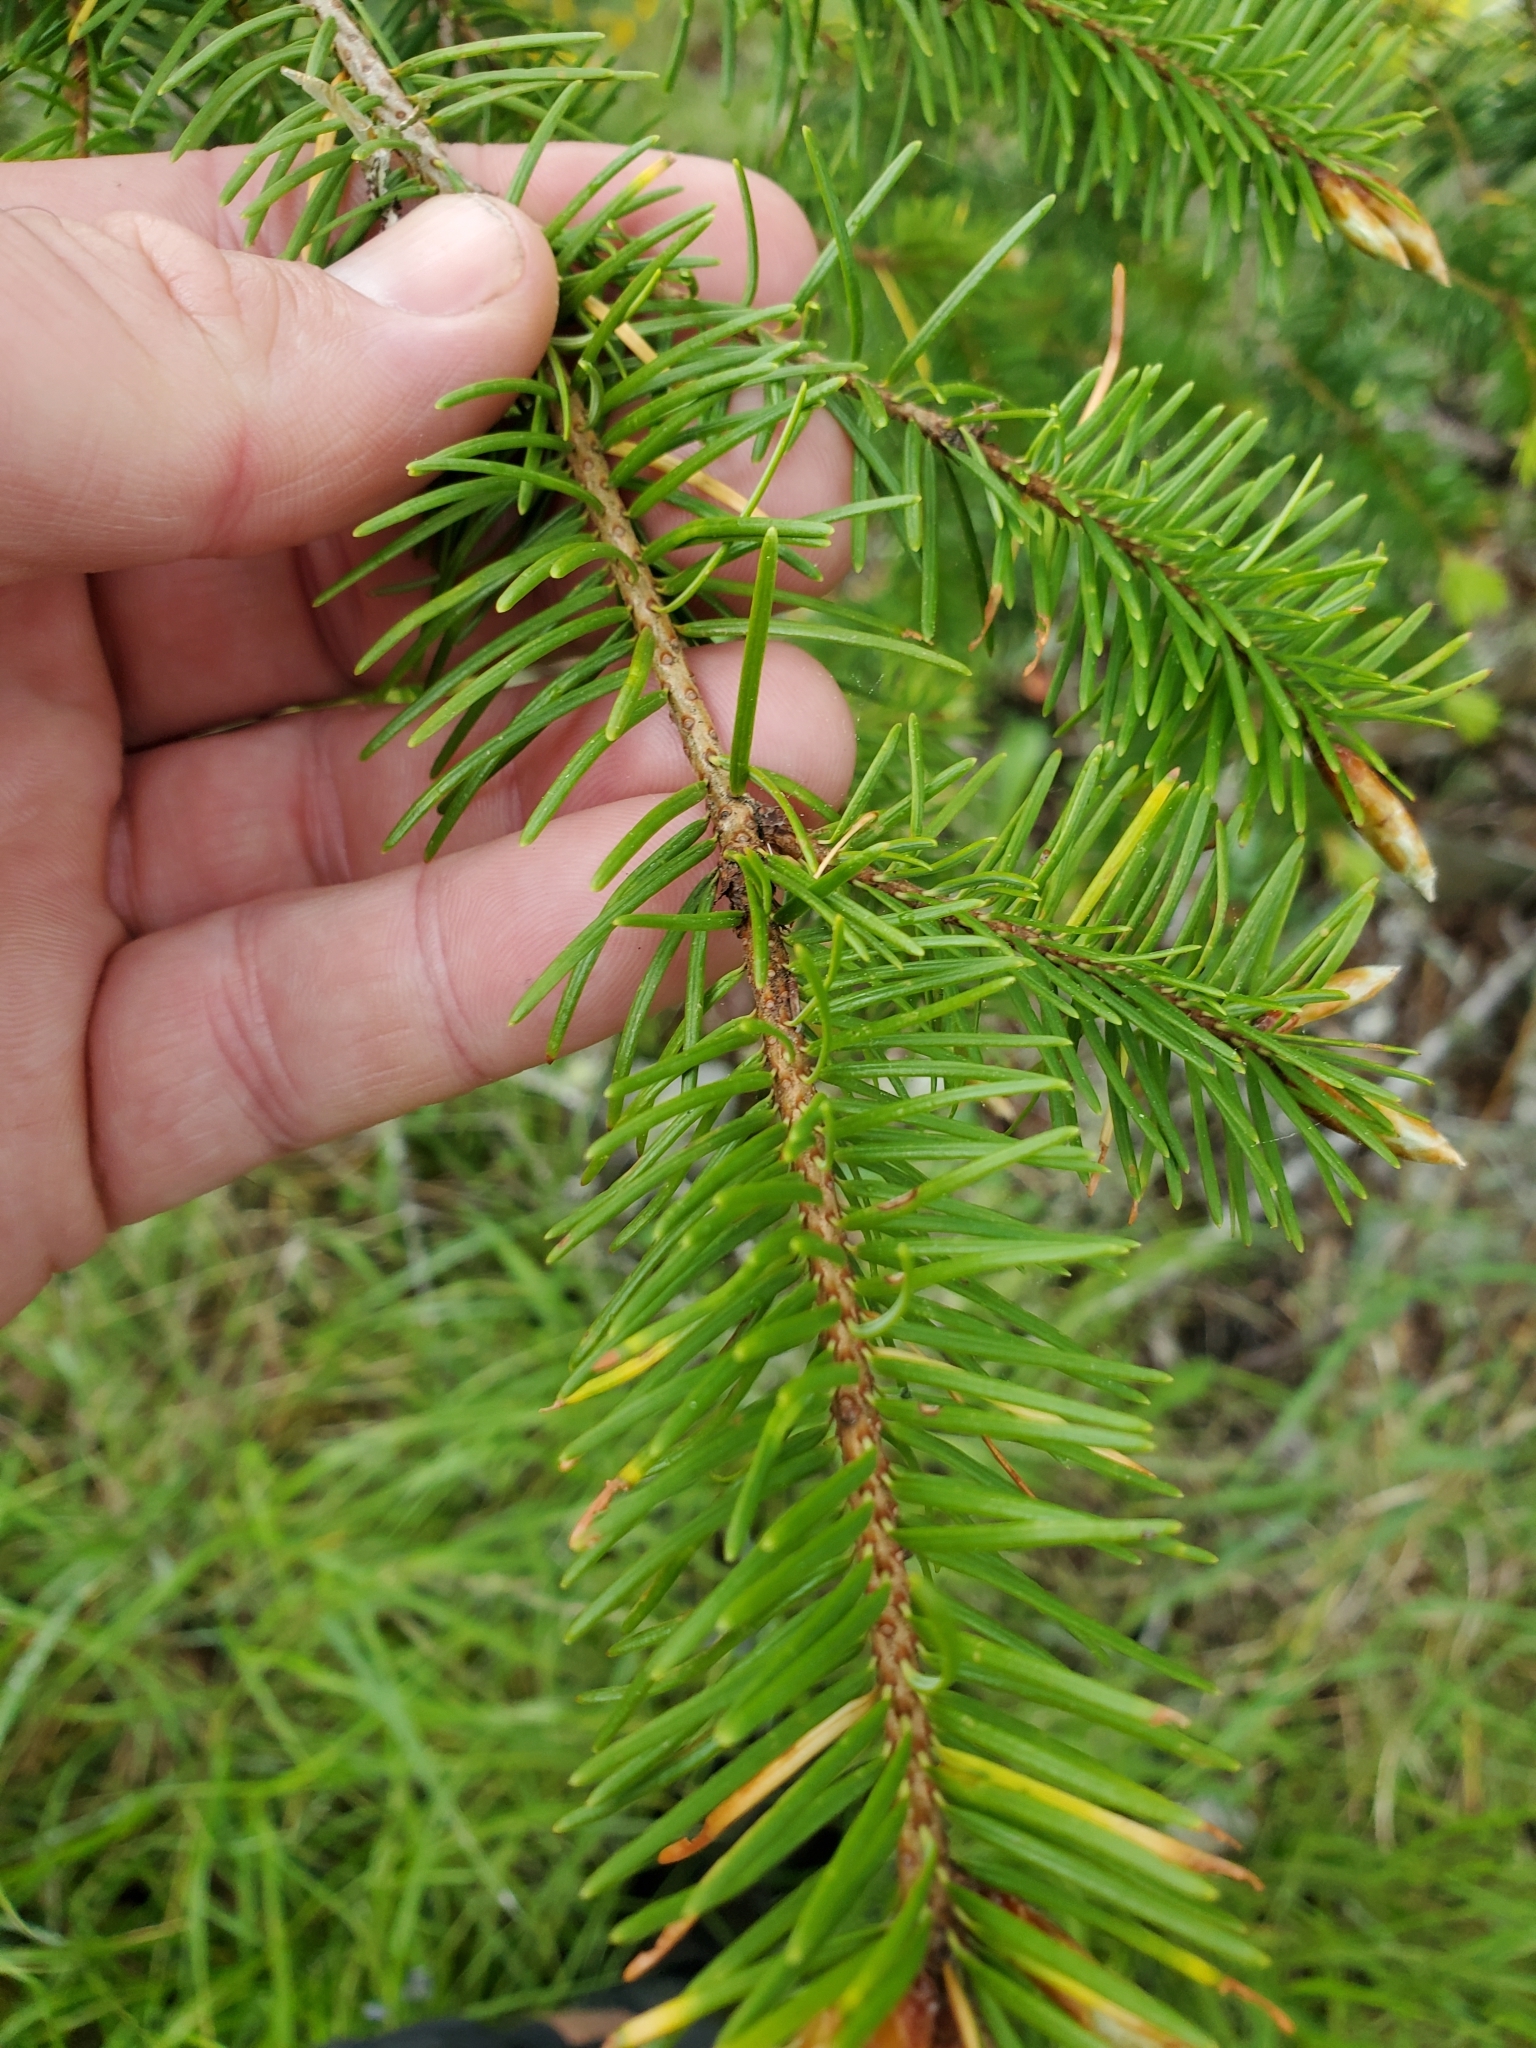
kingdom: Plantae
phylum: Tracheophyta
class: Pinopsida
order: Pinales
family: Pinaceae
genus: Pseudotsuga
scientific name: Pseudotsuga menziesii
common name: Douglas fir
